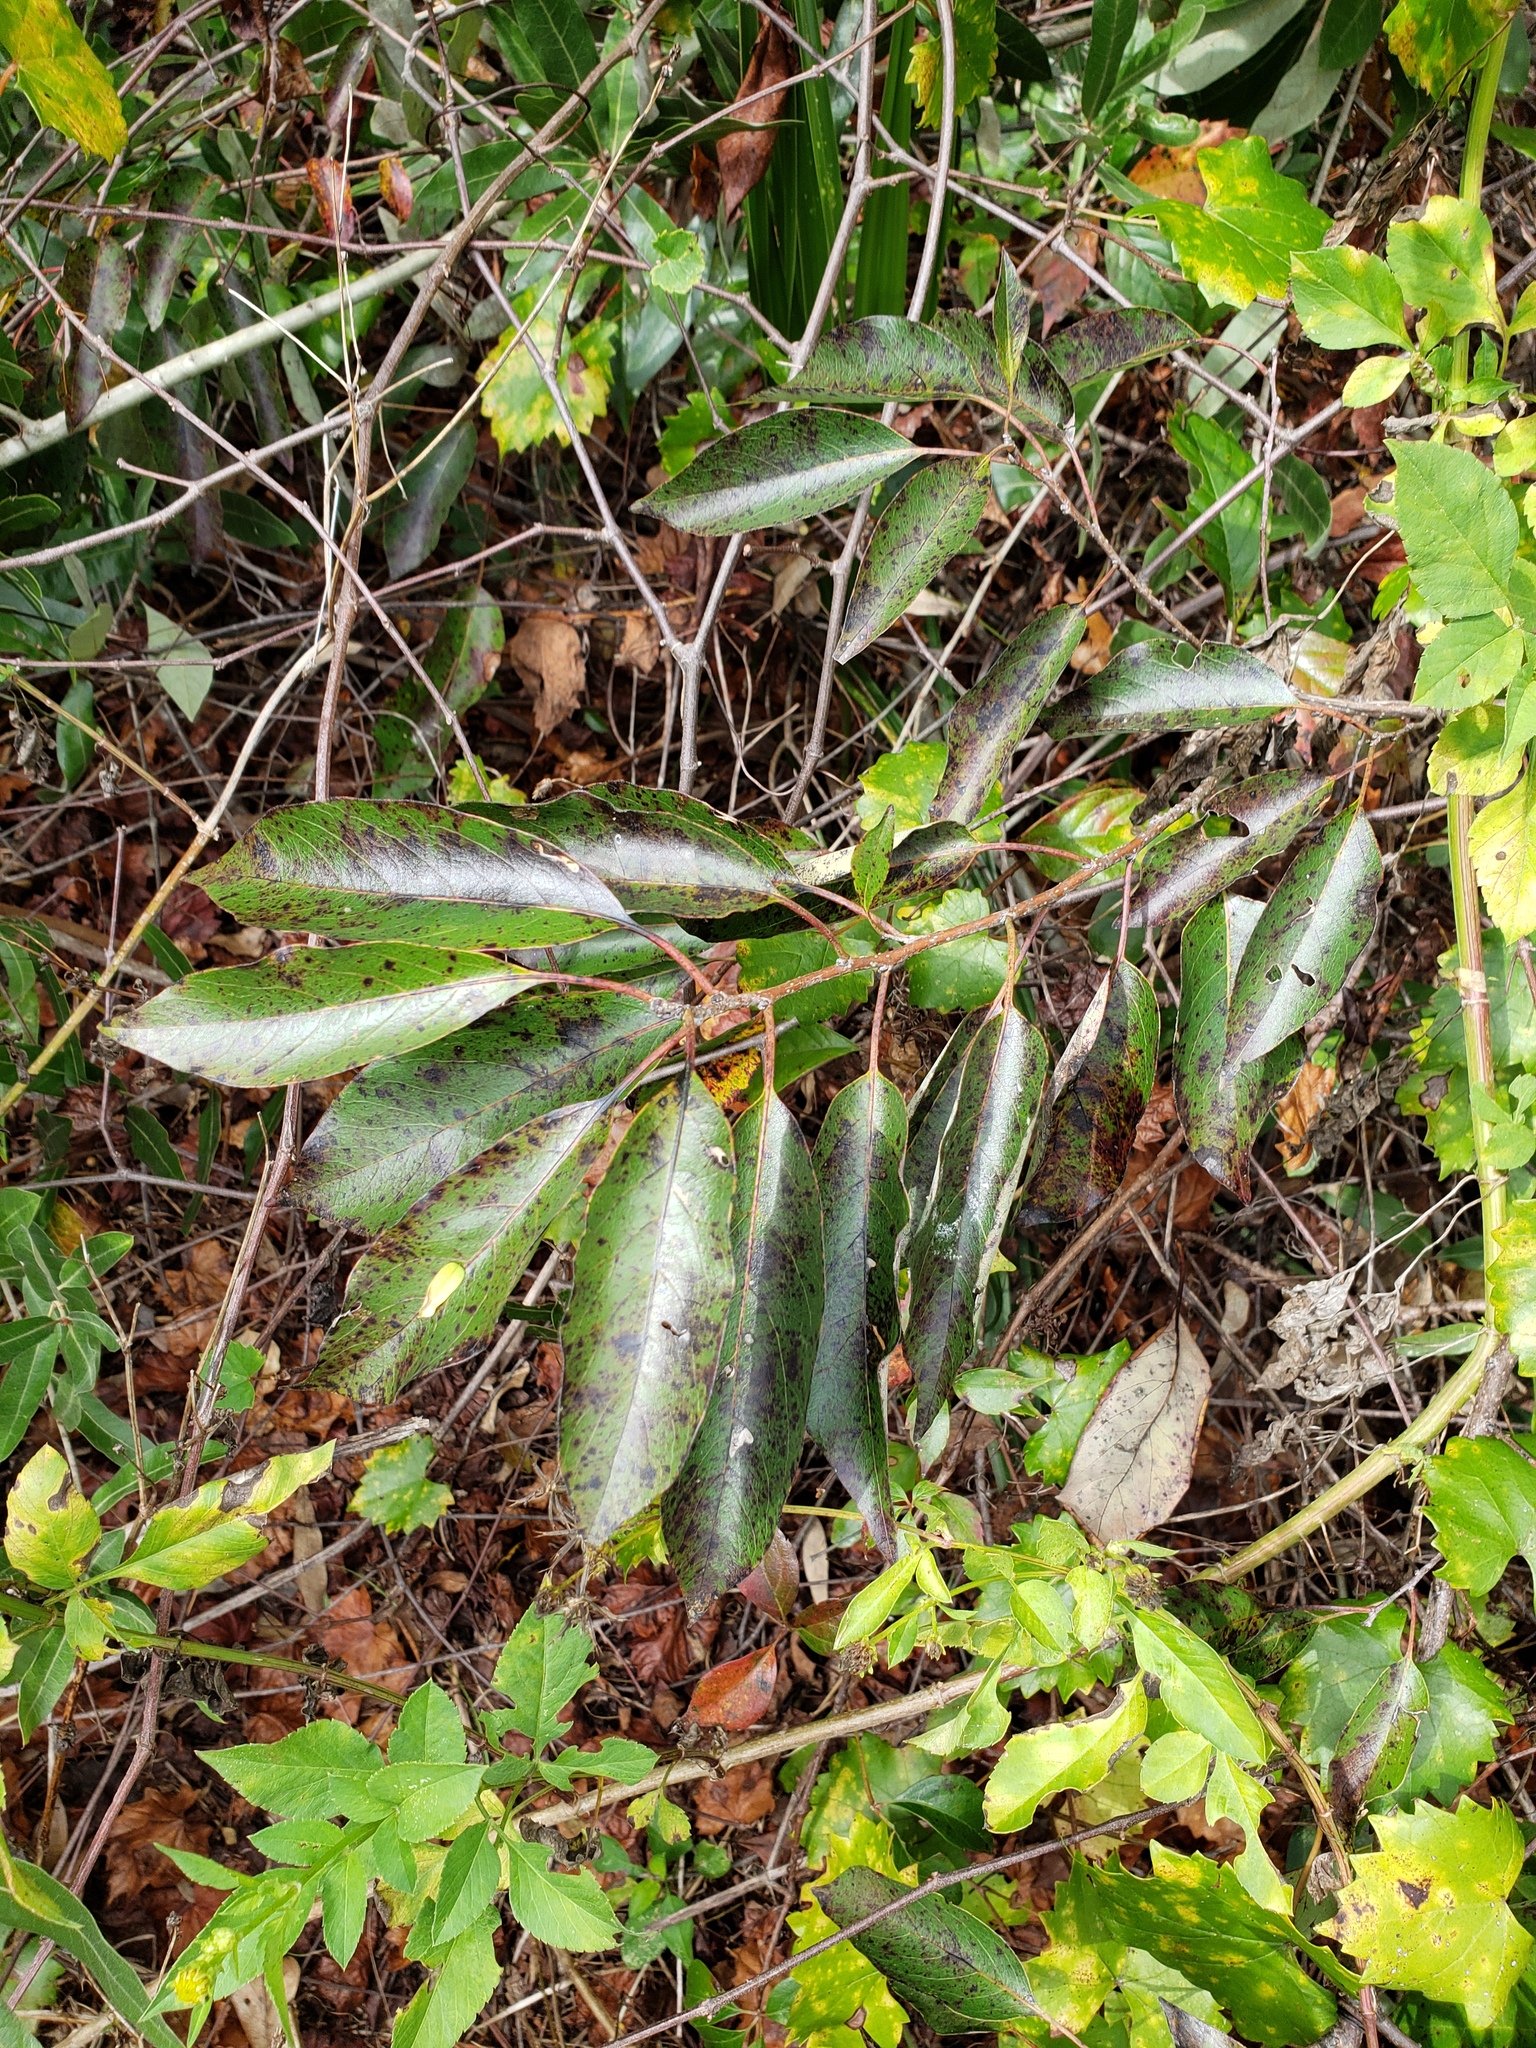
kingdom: Plantae
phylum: Tracheophyta
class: Magnoliopsida
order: Ericales
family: Ebenaceae
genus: Diospyros
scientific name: Diospyros virginiana
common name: Persimmon
